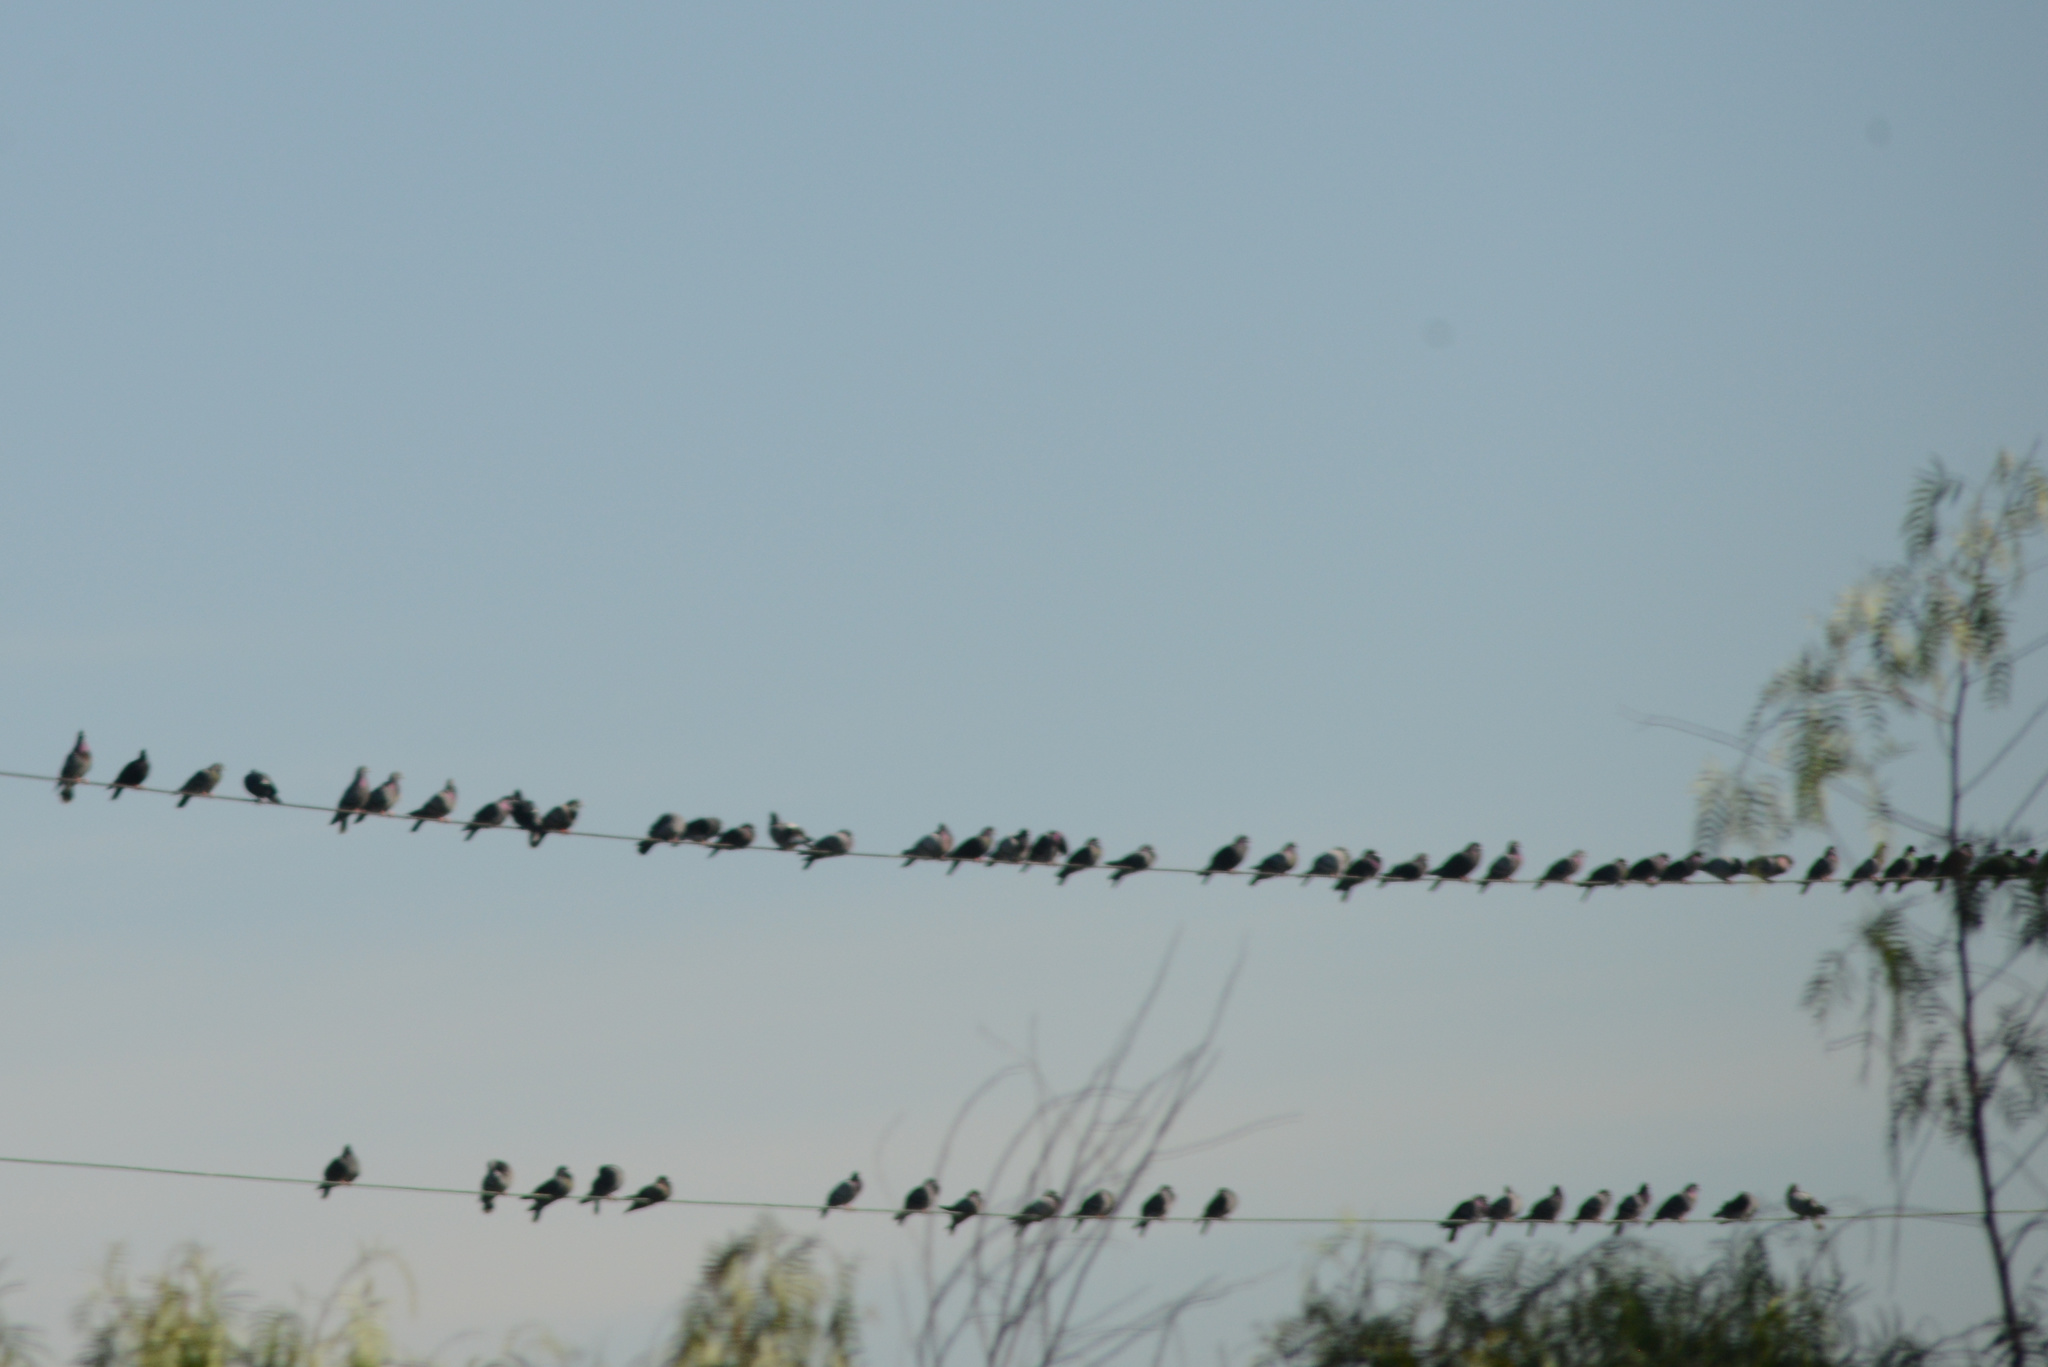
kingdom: Animalia
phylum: Chordata
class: Aves
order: Columbiformes
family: Columbidae
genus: Columba
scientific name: Columba livia
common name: Rock pigeon
